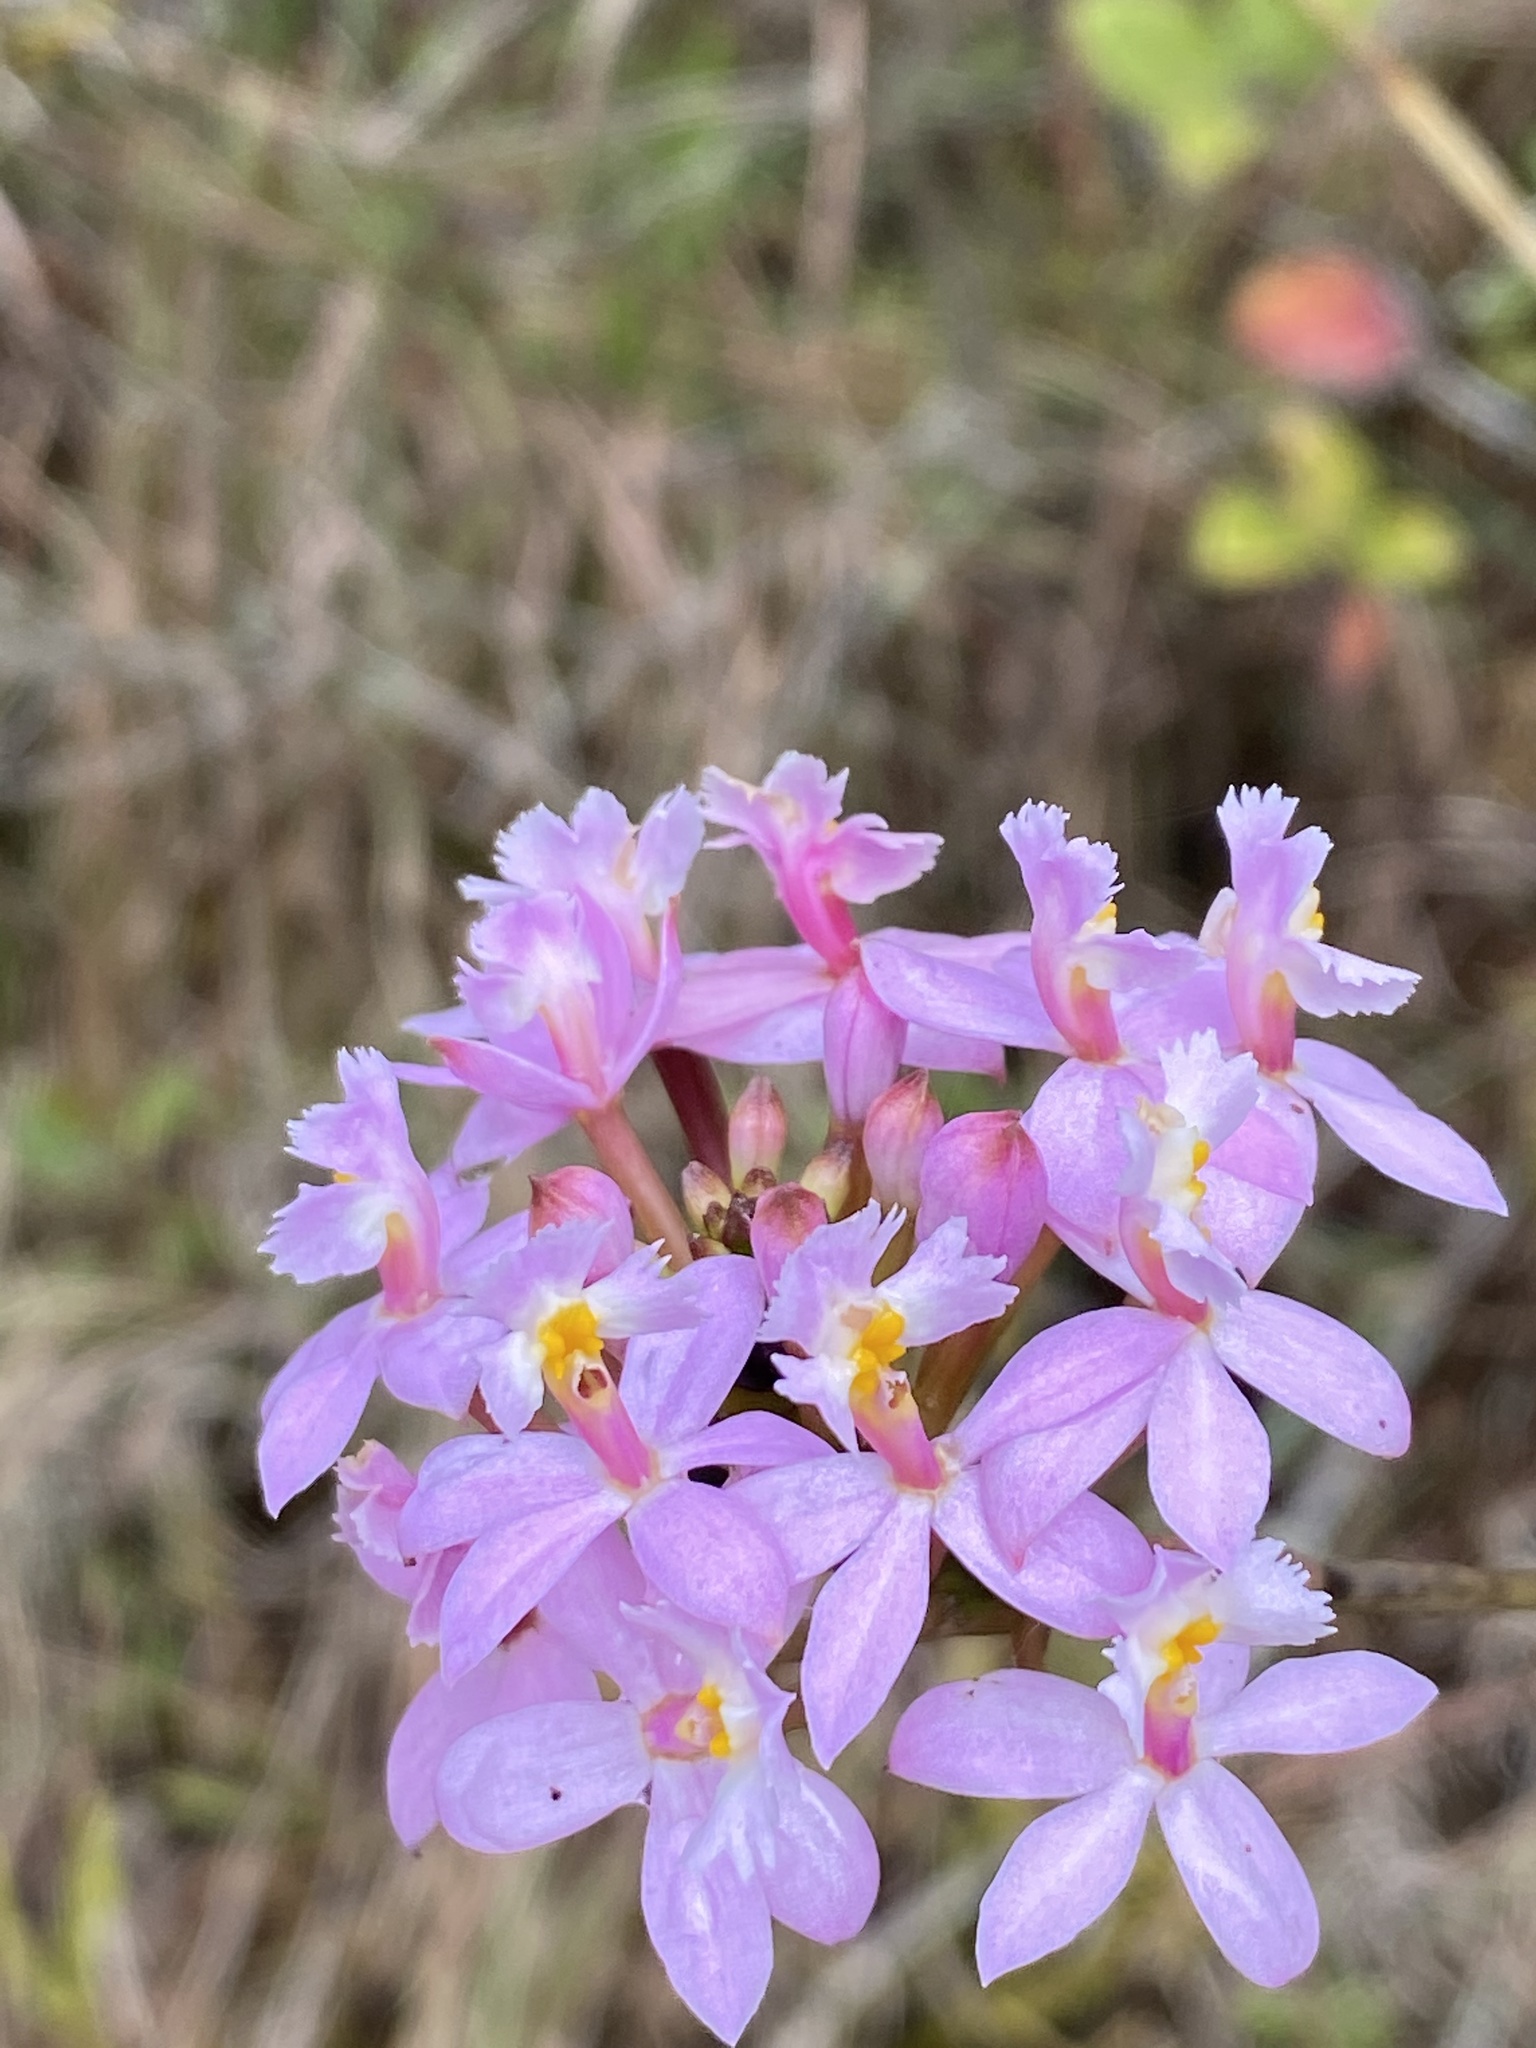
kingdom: Plantae
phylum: Tracheophyta
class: Liliopsida
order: Asparagales
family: Orchidaceae
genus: Epidendrum
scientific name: Epidendrum secundum
